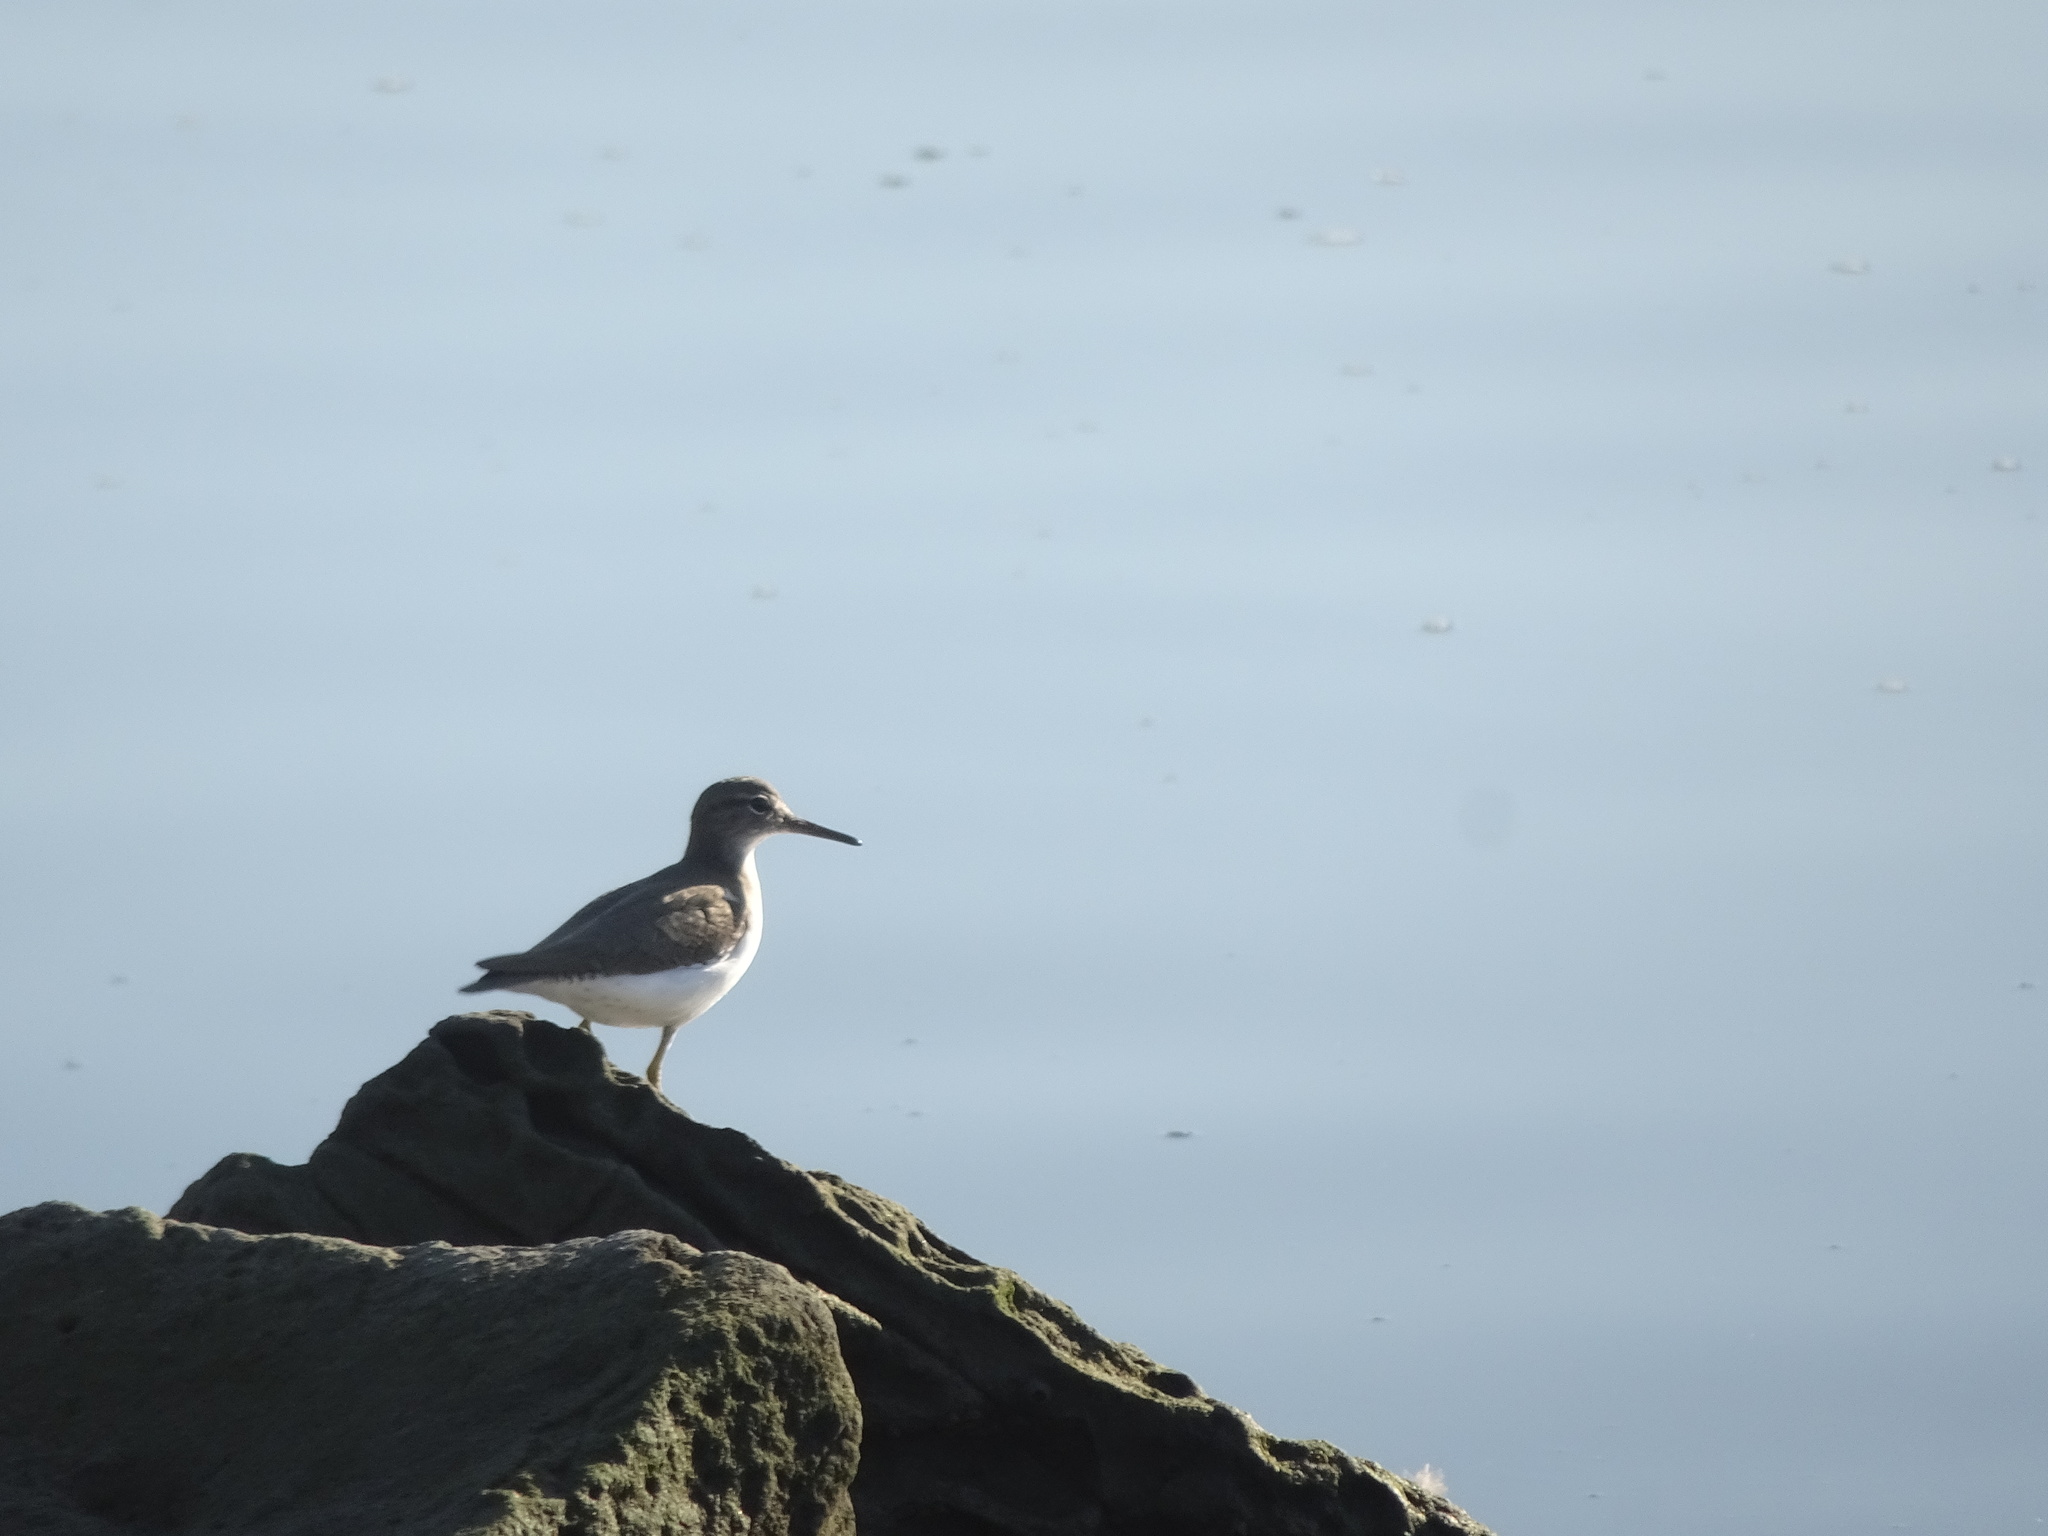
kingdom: Animalia
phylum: Chordata
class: Aves
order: Charadriiformes
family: Scolopacidae
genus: Actitis
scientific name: Actitis macularius
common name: Spotted sandpiper
